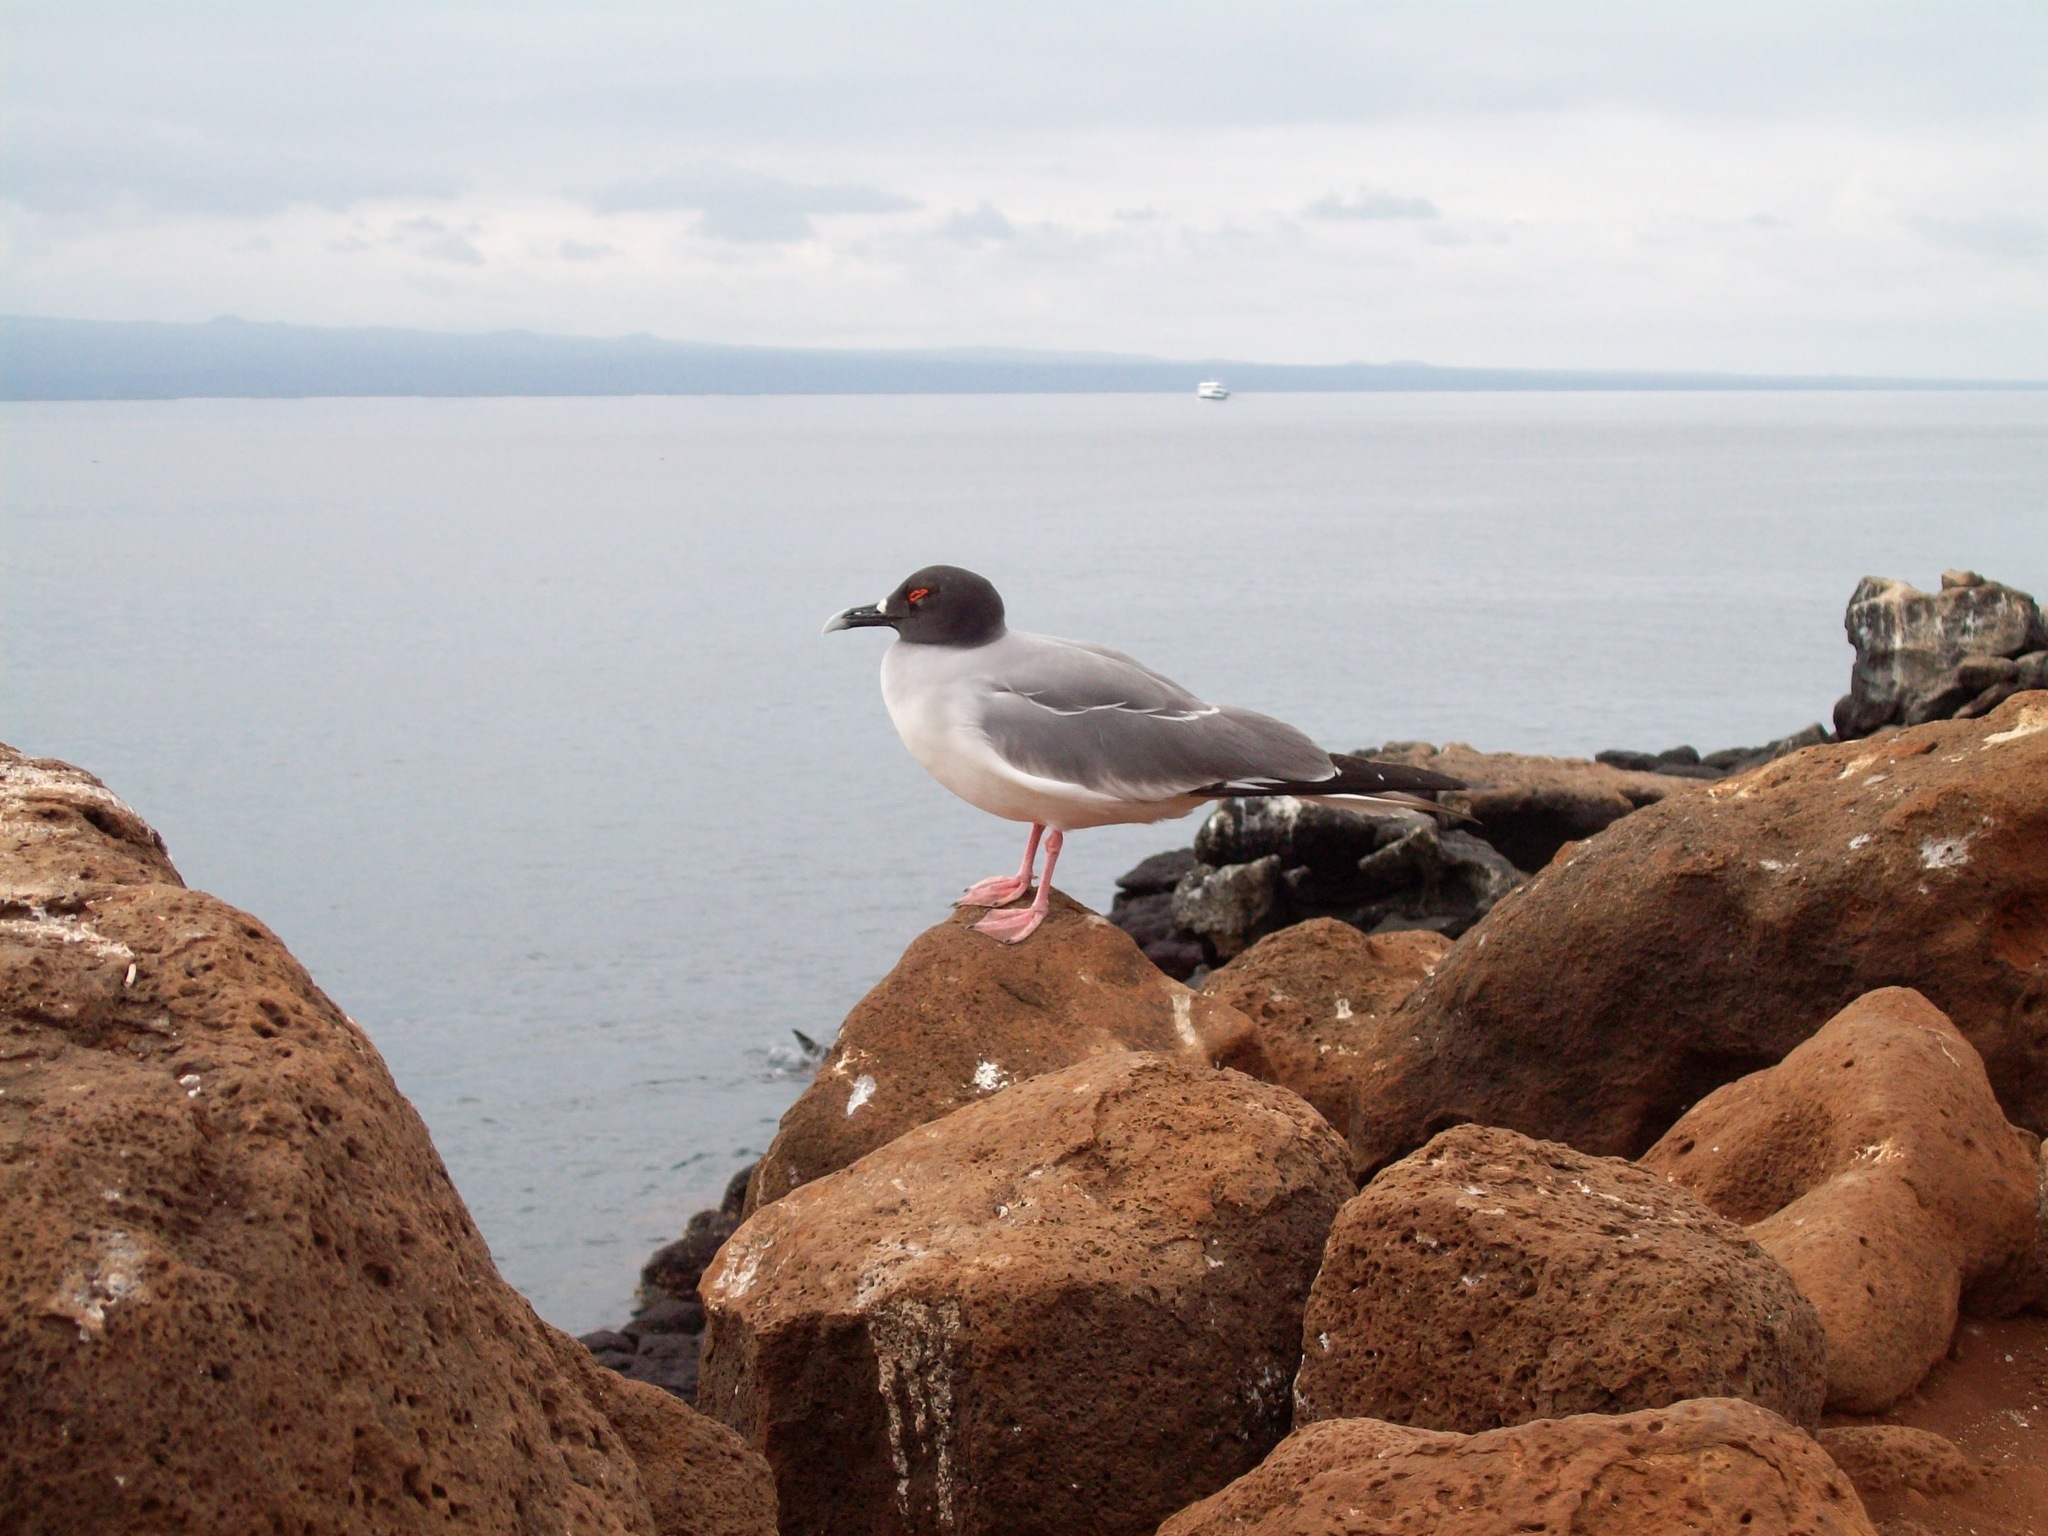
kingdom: Animalia
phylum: Chordata
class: Aves
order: Charadriiformes
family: Laridae
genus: Creagrus
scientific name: Creagrus furcatus
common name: Swallow-tailed gull
